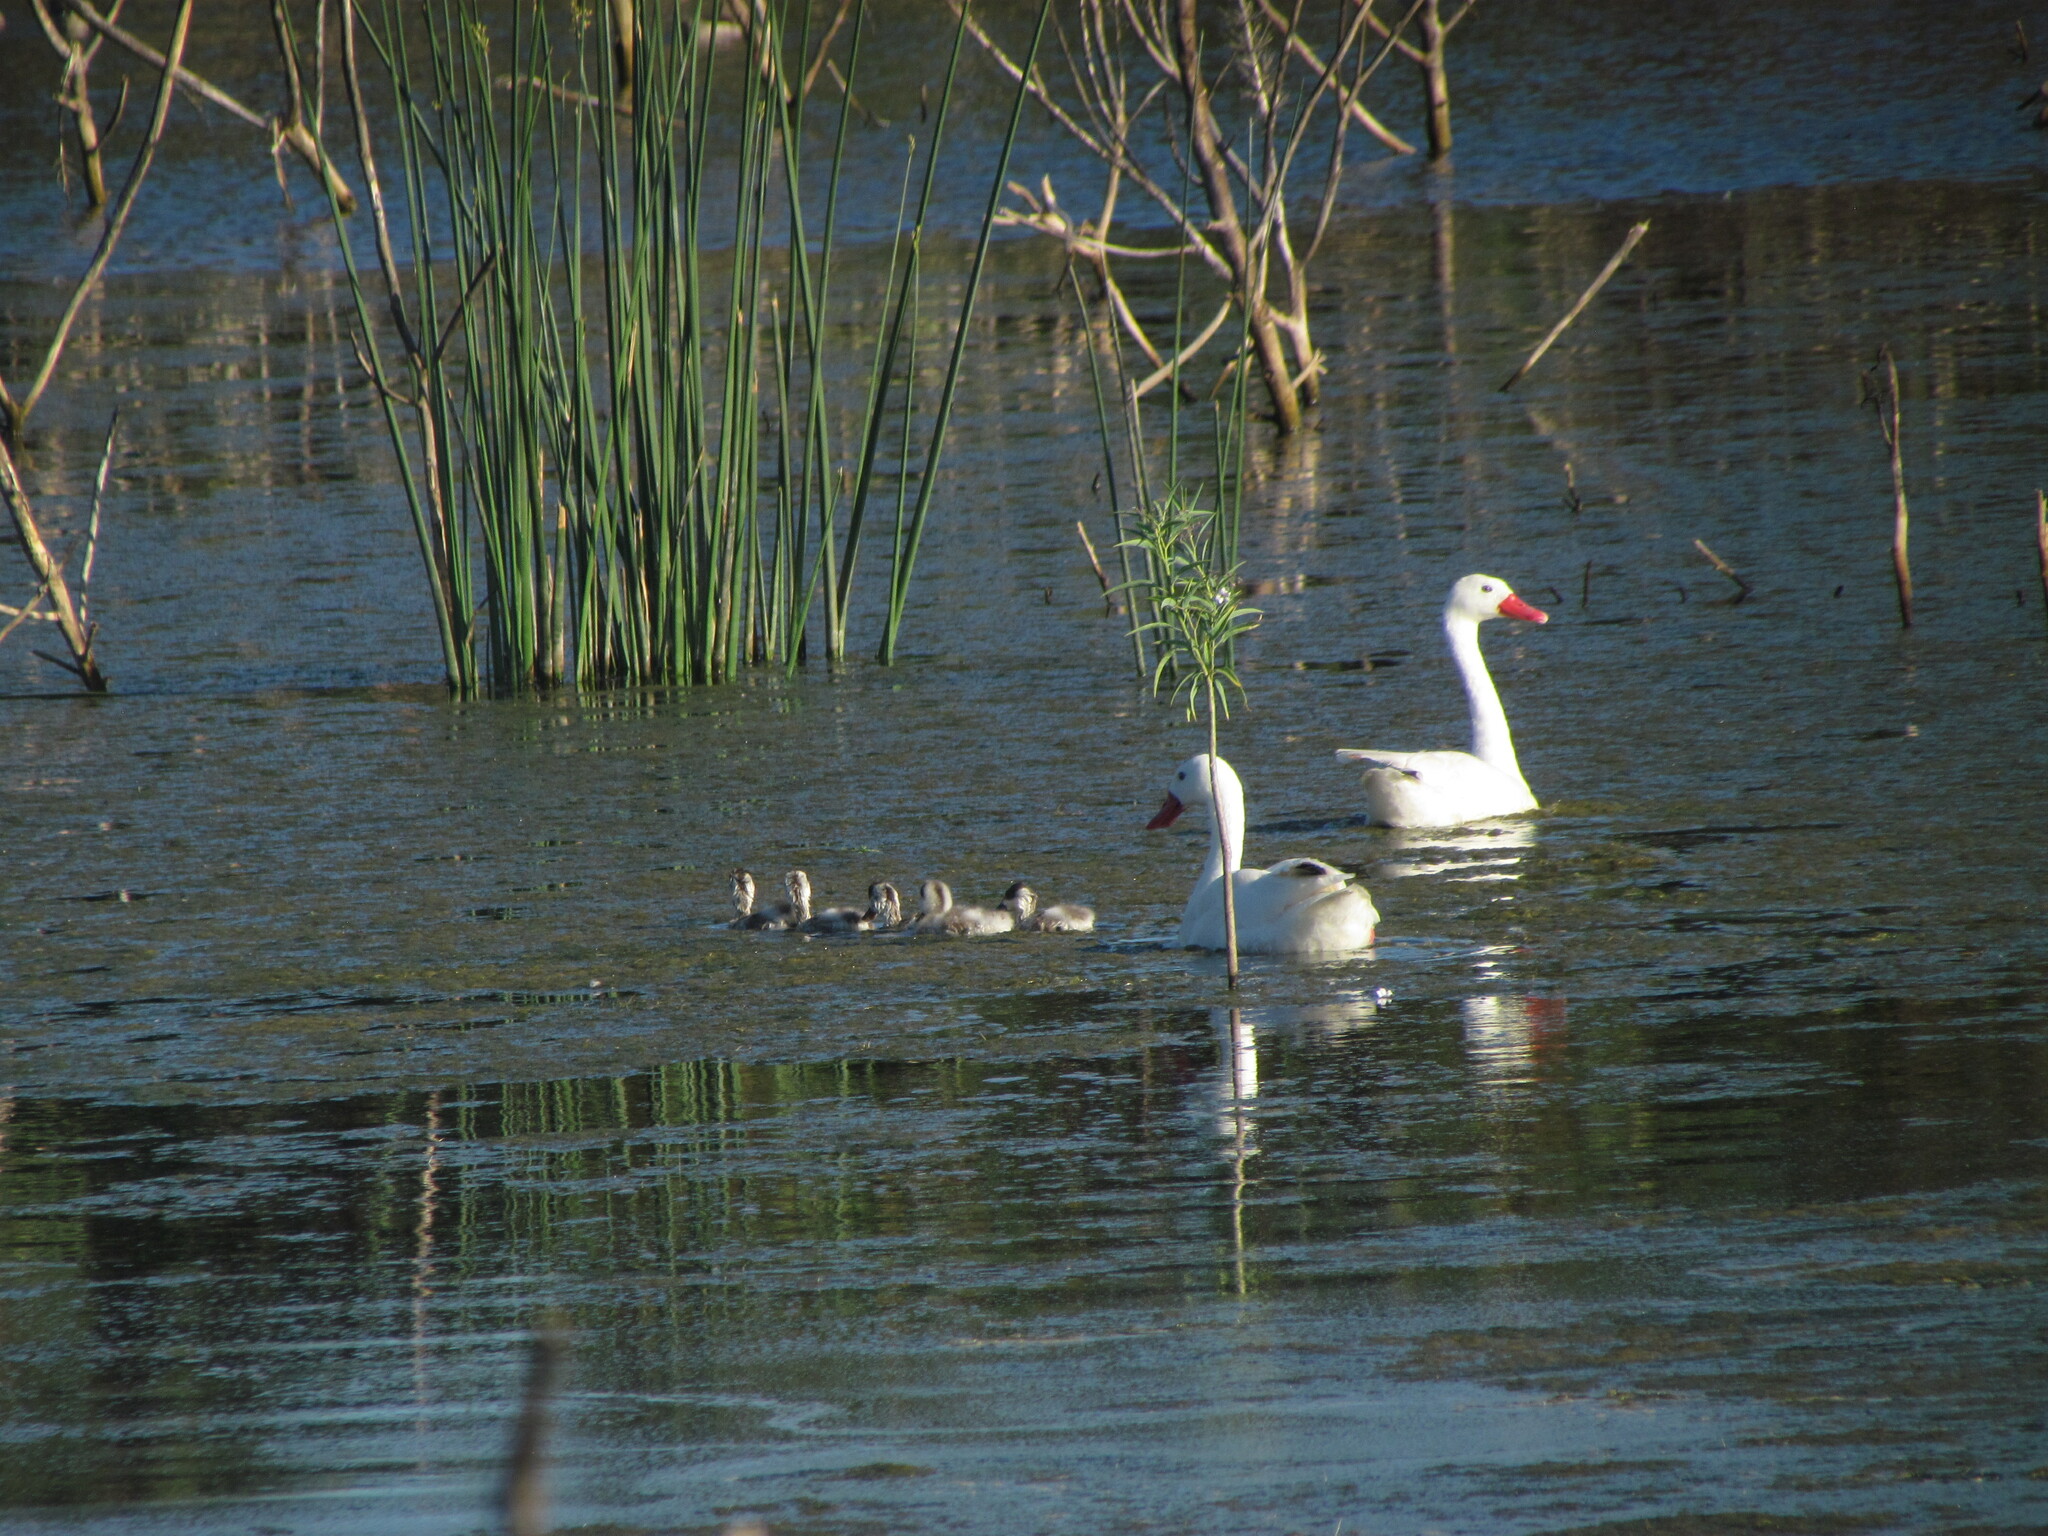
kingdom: Animalia
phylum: Chordata
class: Aves
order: Anseriformes
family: Anatidae
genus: Coscoroba
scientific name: Coscoroba coscoroba
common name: Coscoroba swan
